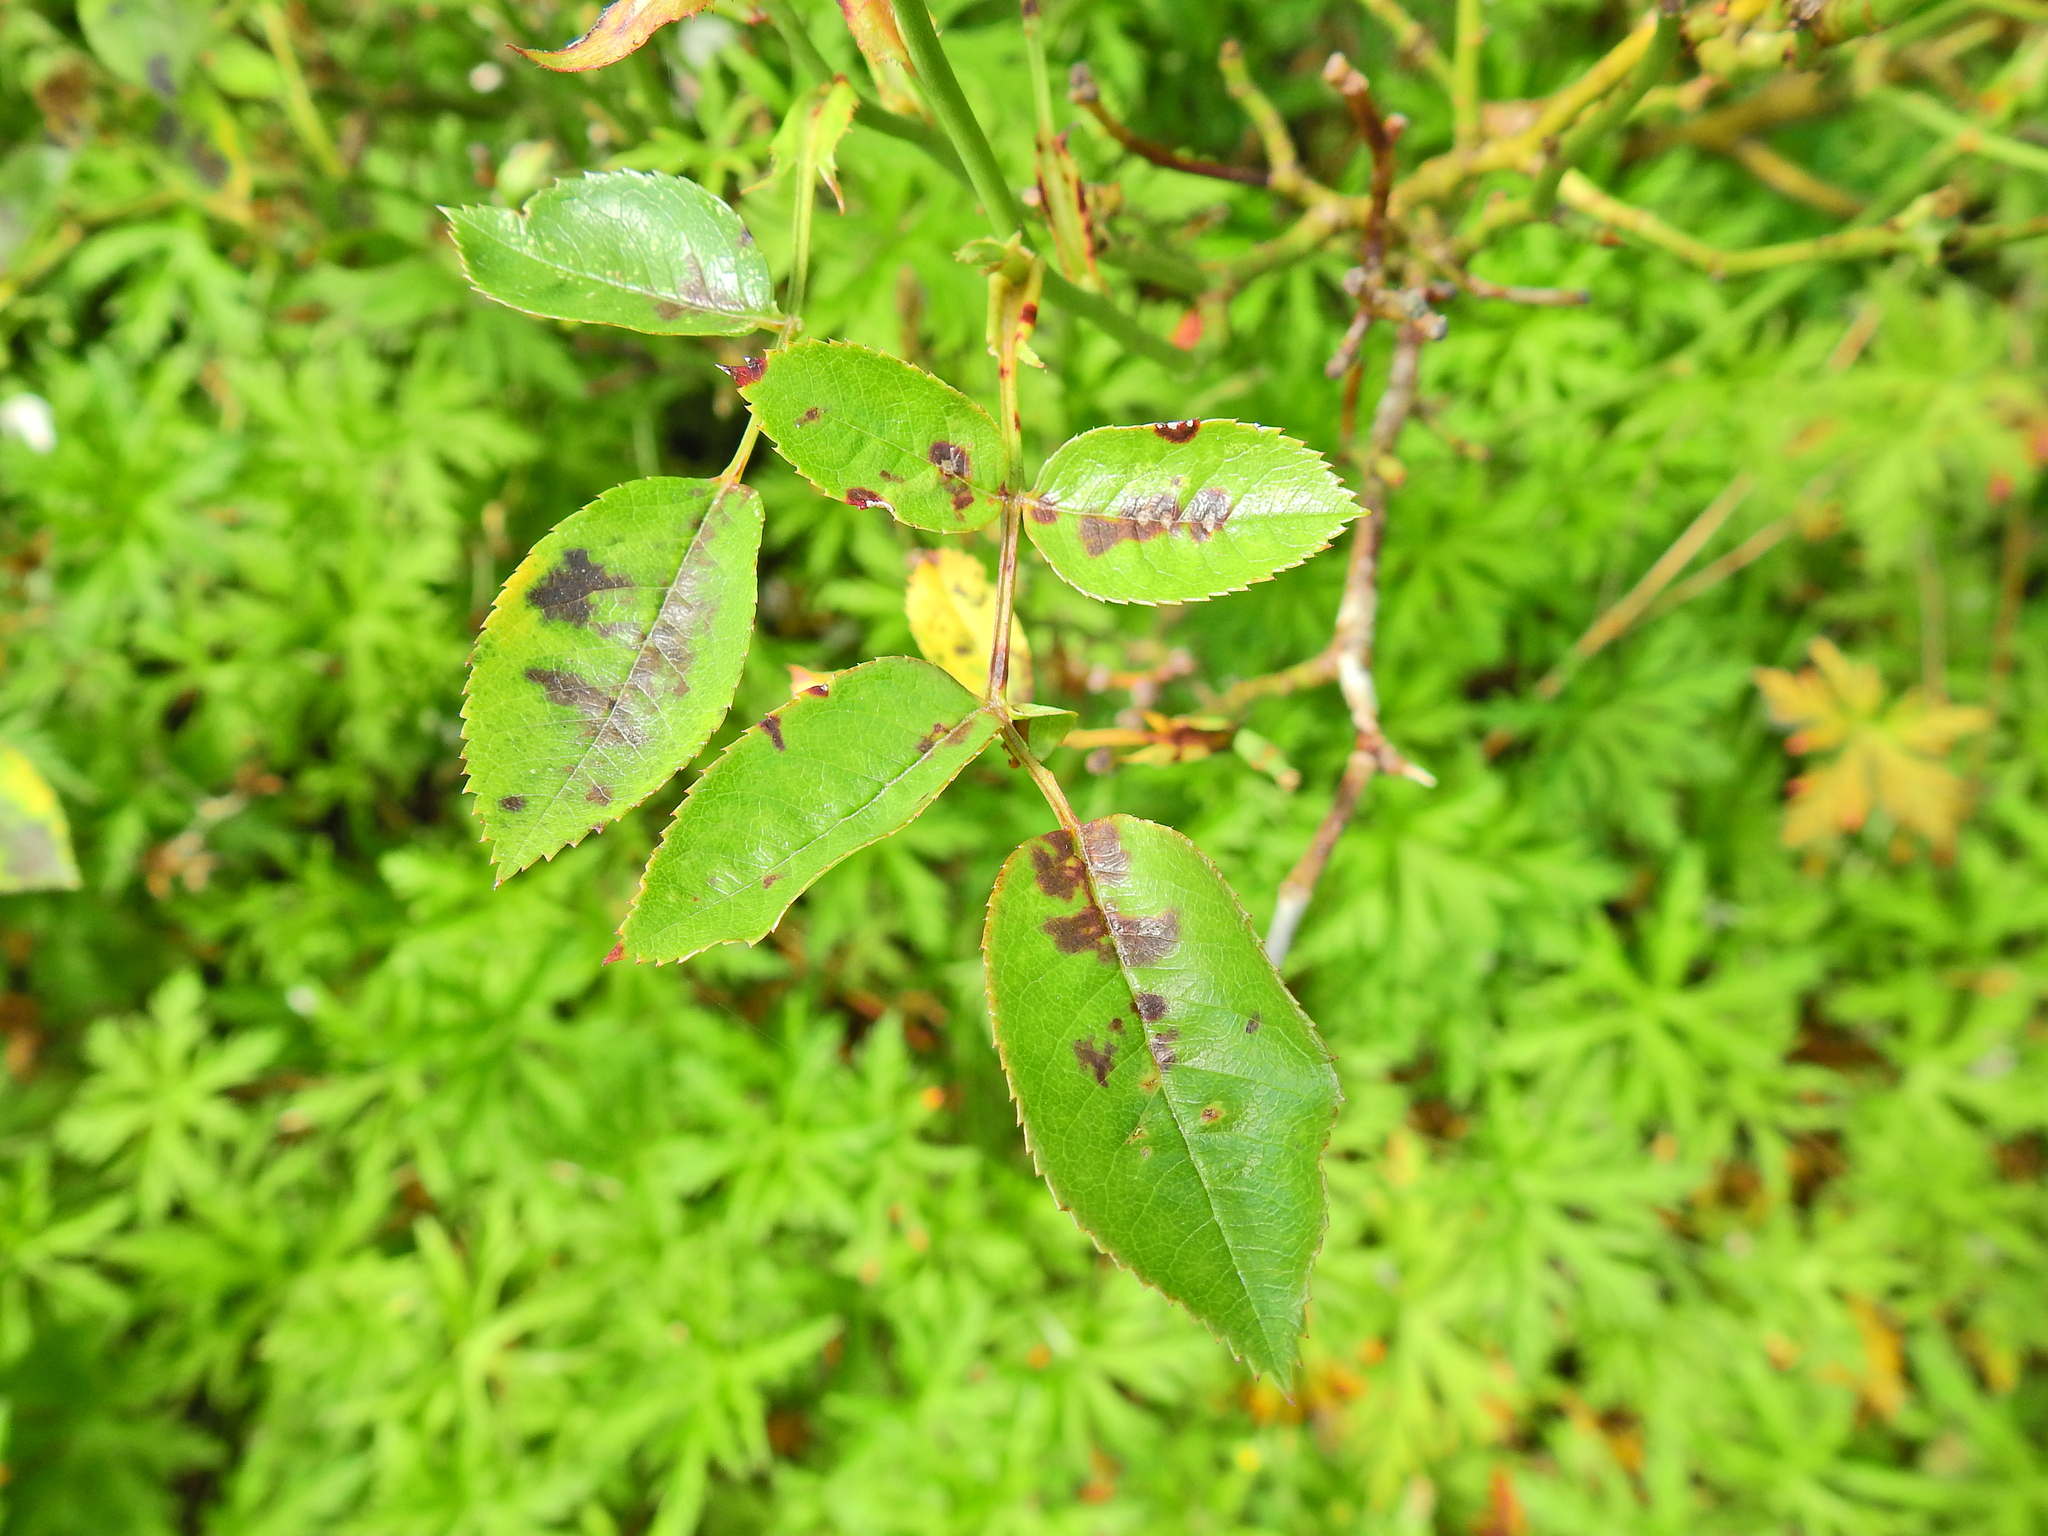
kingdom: Fungi
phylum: Ascomycota
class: Leotiomycetes
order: Helotiales
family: Drepanopezizaceae
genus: Diplocarpon
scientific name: Diplocarpon rosae
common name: Rose black-spot
